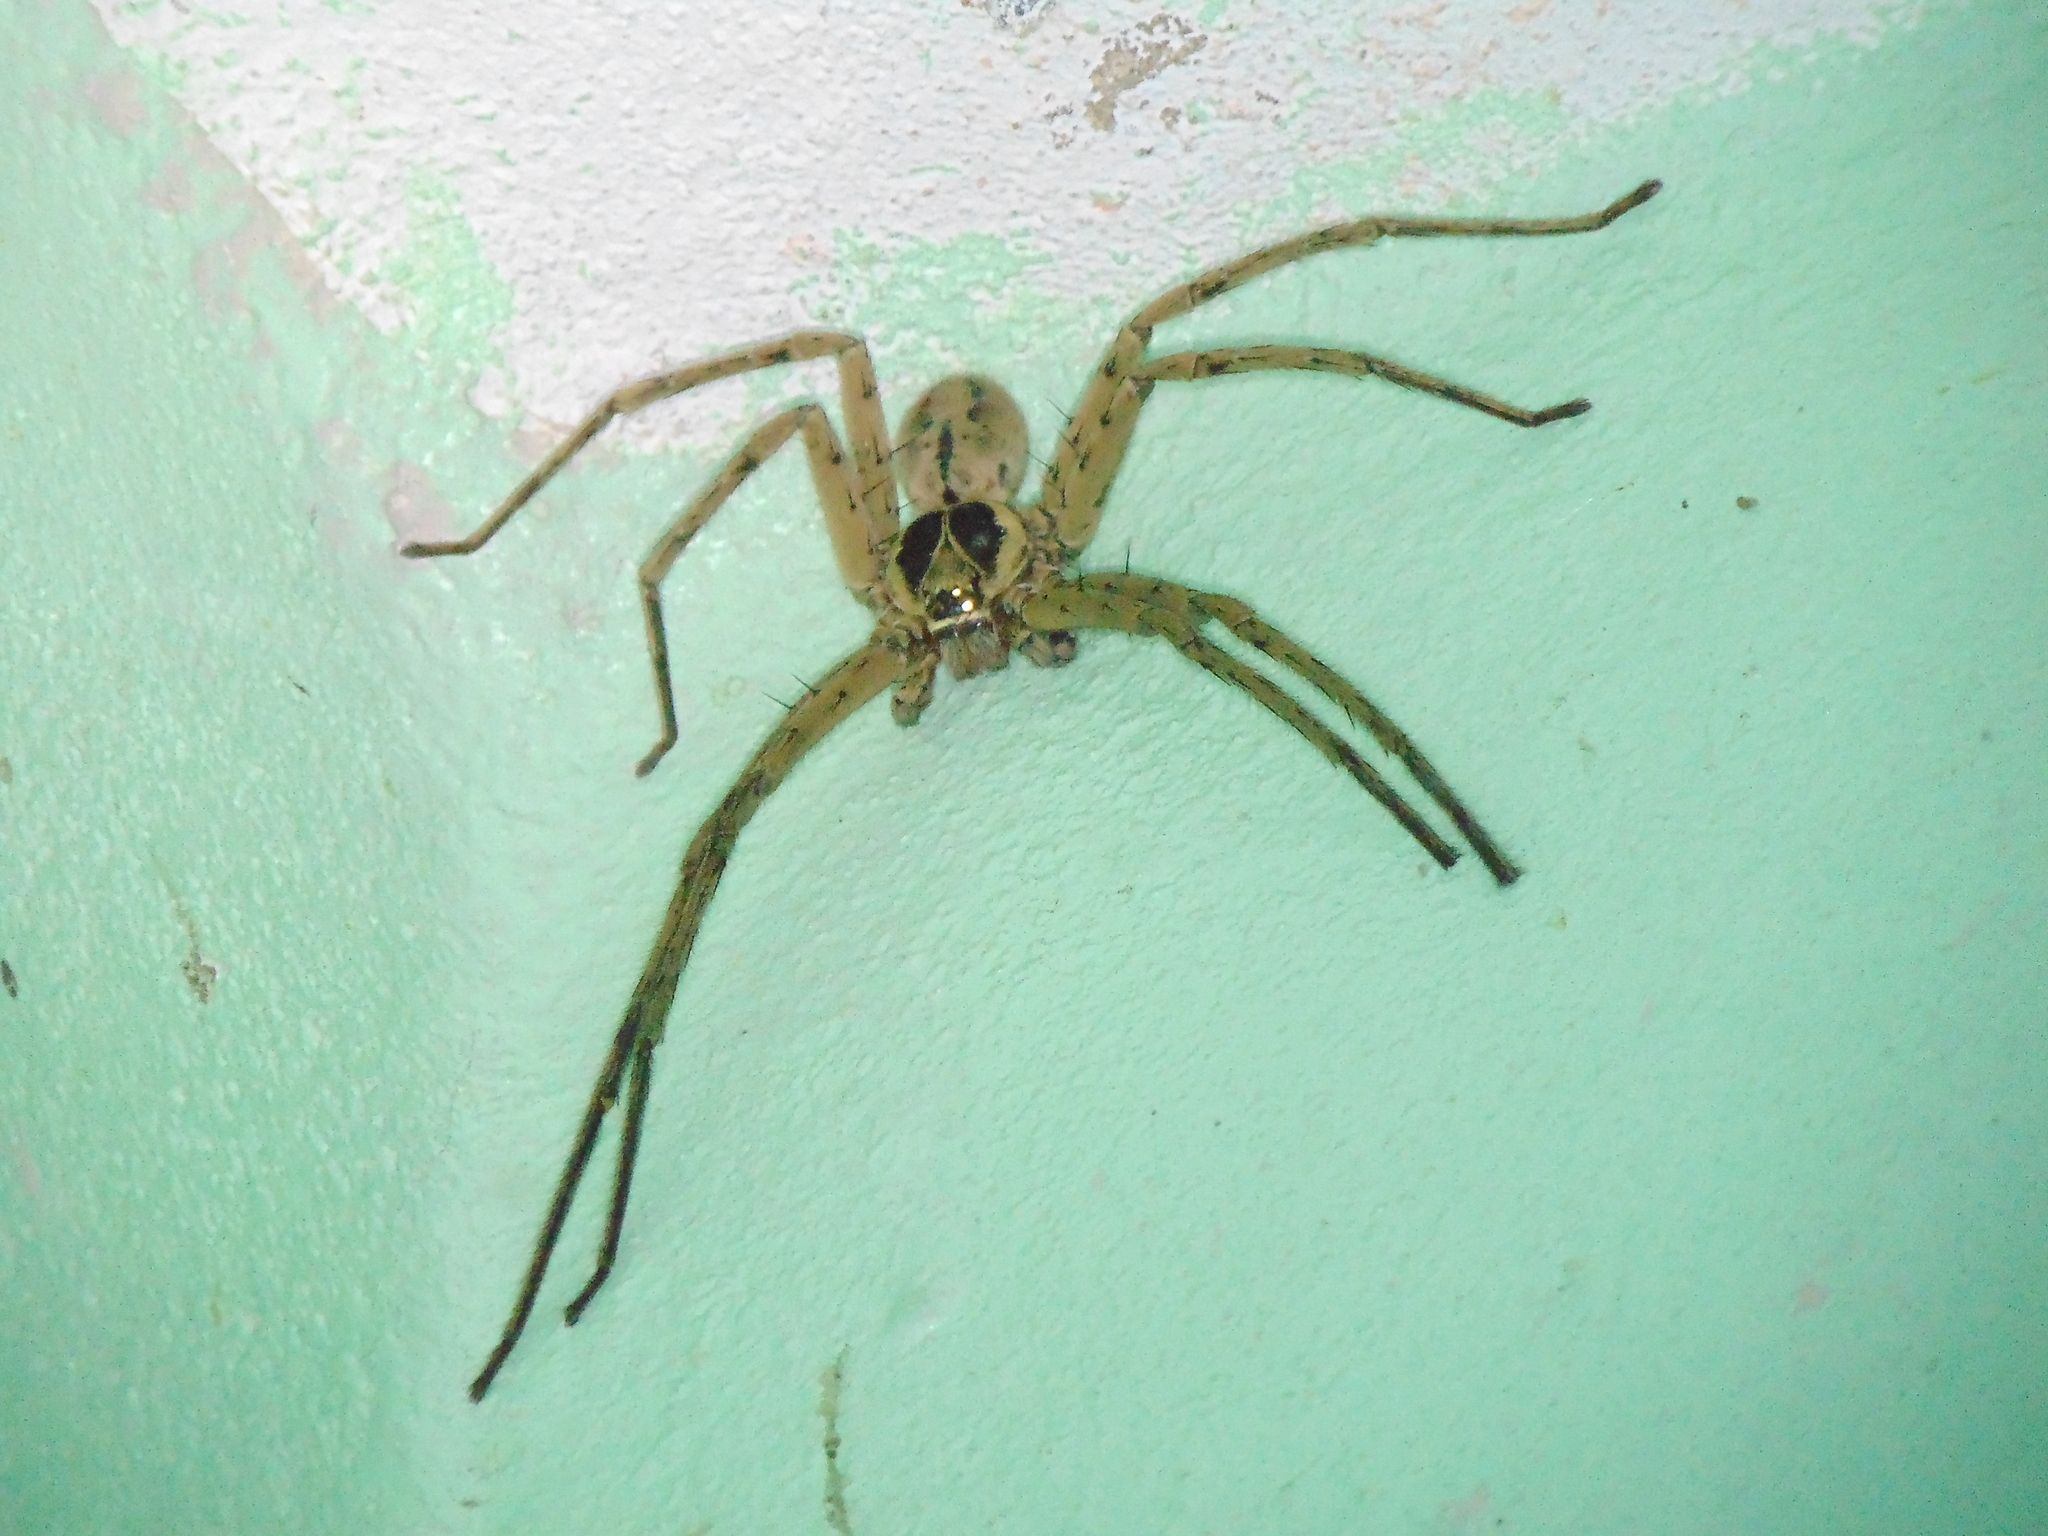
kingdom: Animalia
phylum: Arthropoda
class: Arachnida
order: Araneae
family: Sparassidae
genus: Heteropoda
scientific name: Heteropoda venatoria
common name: Huntsman spider
